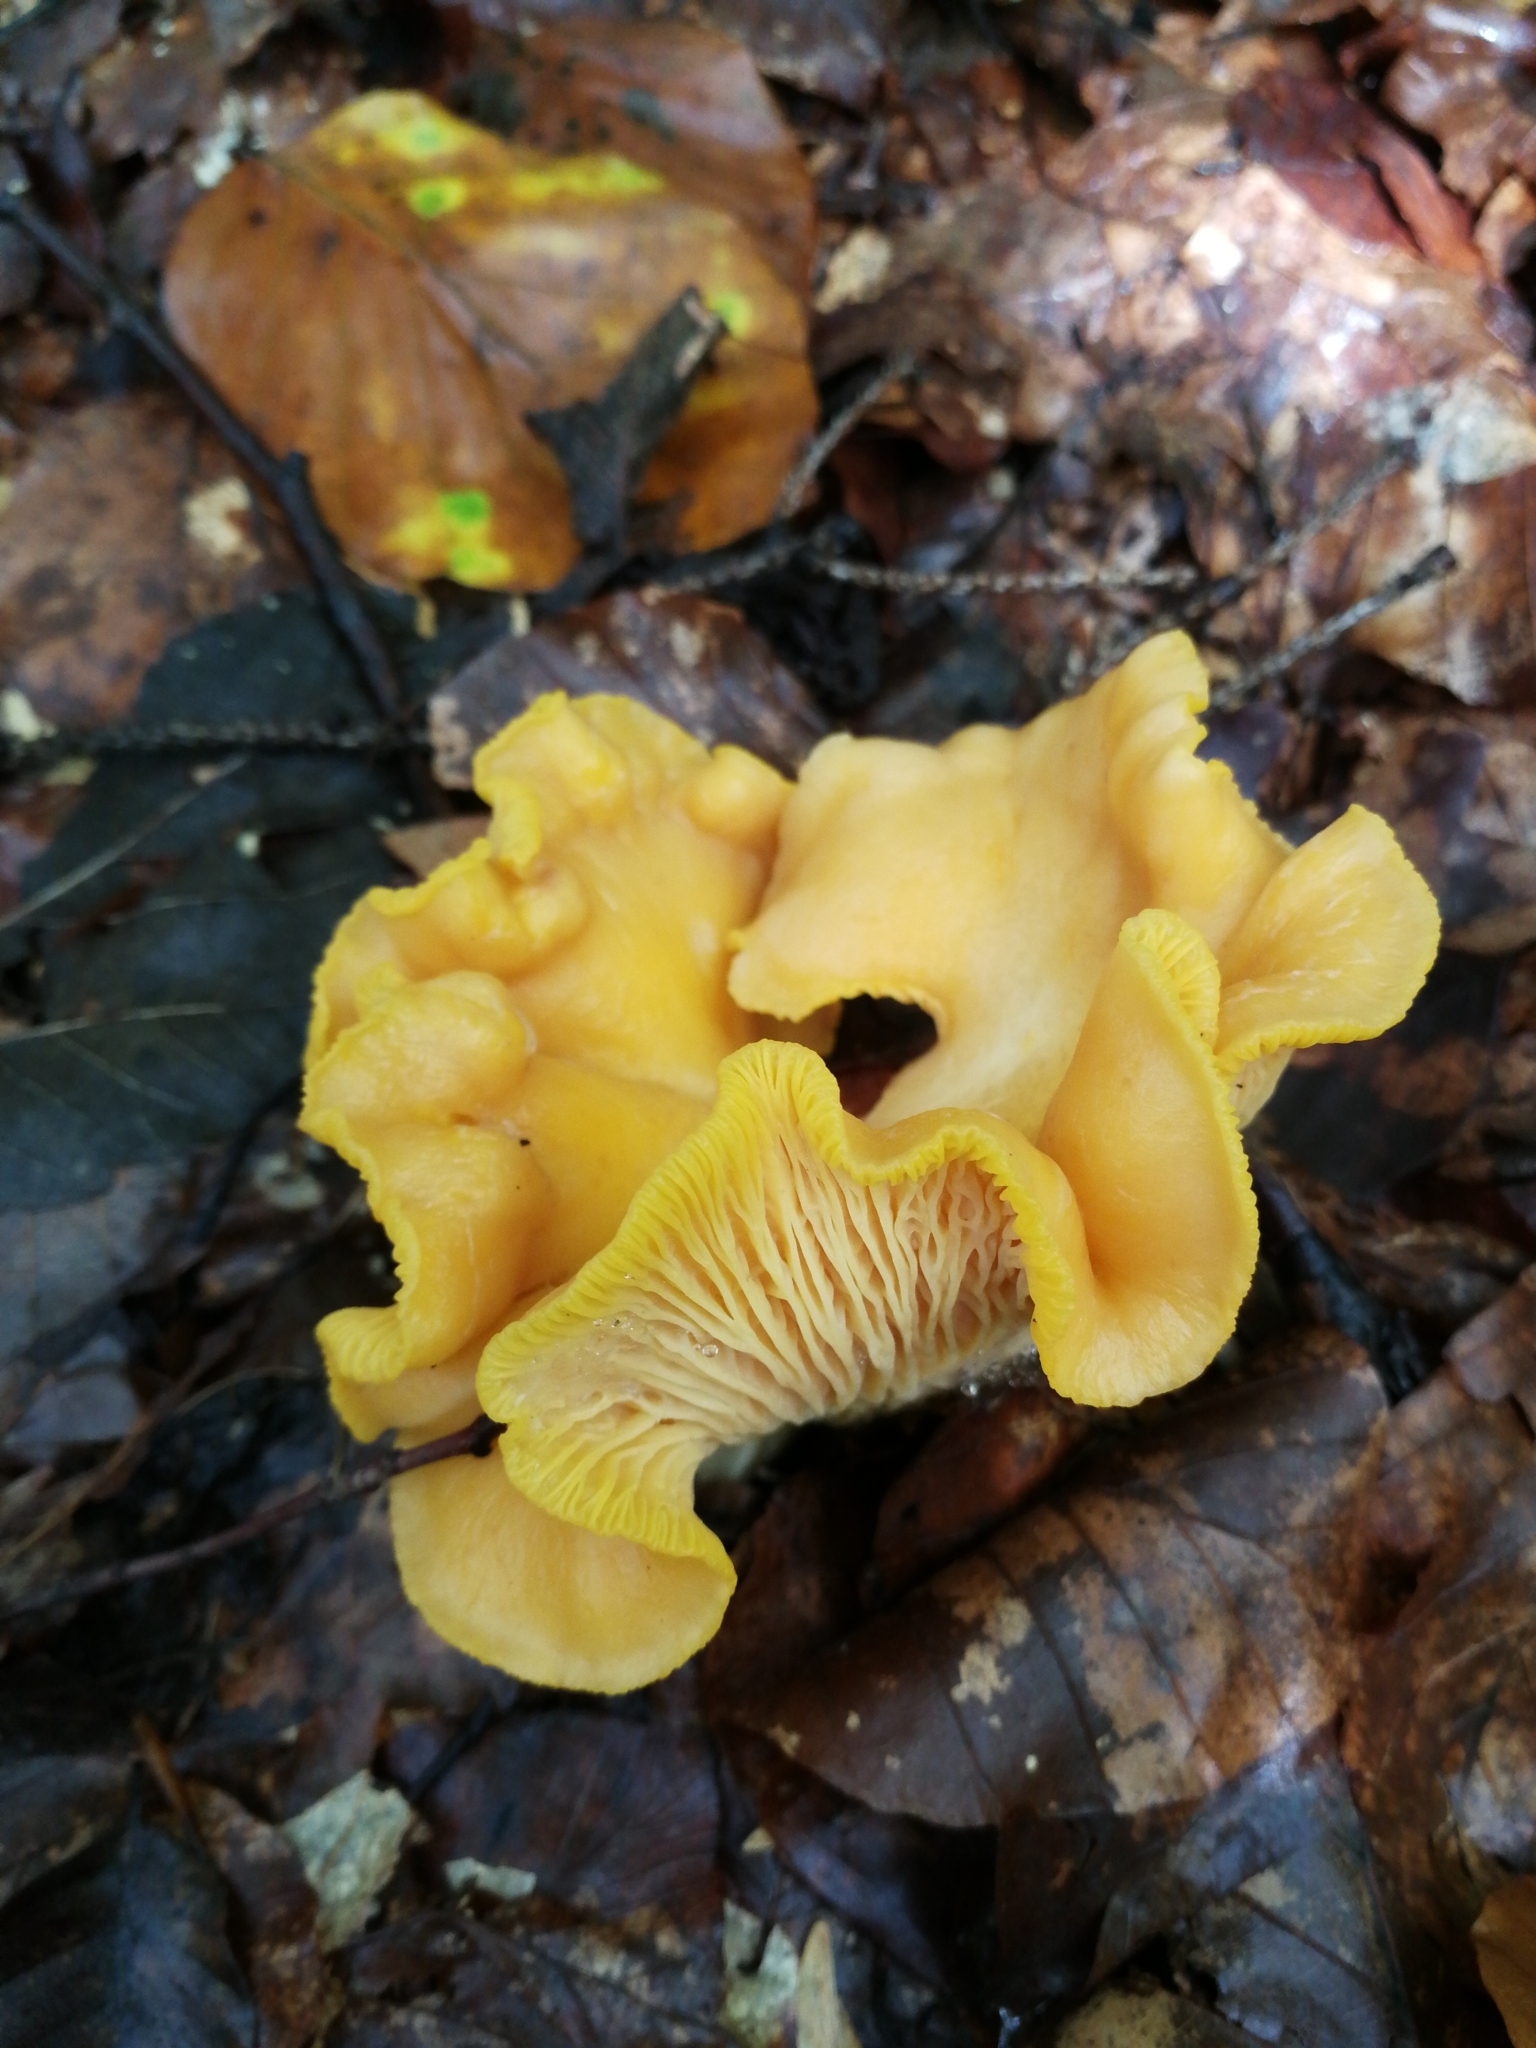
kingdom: Fungi
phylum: Basidiomycota
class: Agaricomycetes
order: Cantharellales
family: Hydnaceae
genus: Cantharellus
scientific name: Cantharellus cibarius
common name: Chanterelle
